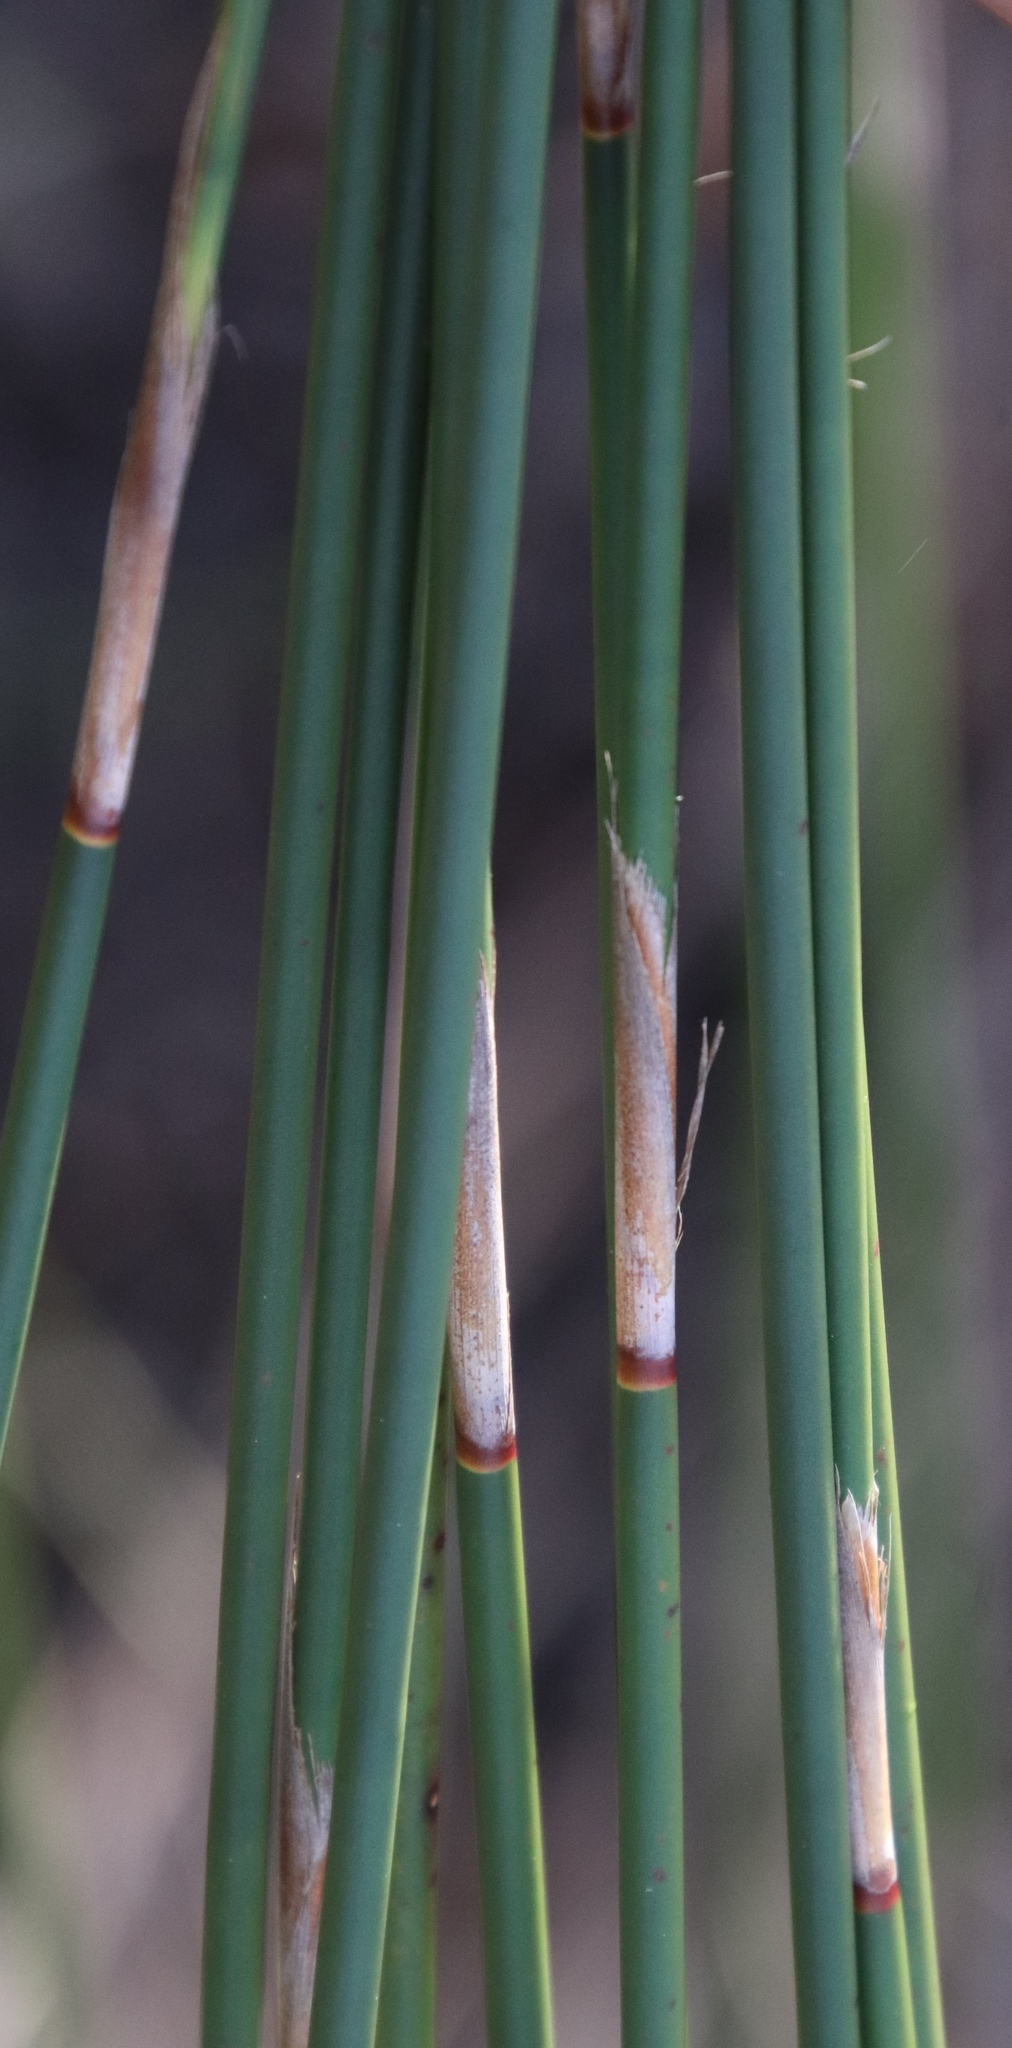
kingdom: Plantae
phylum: Tracheophyta
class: Liliopsida
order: Poales
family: Restionaceae
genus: Thamnochortus
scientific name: Thamnochortus insignis
